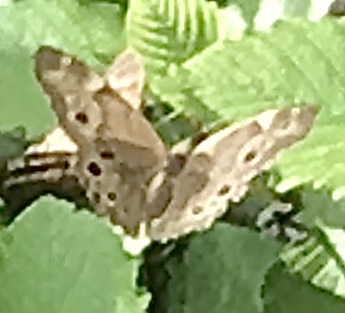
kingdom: Animalia
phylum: Arthropoda
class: Insecta
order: Lepidoptera
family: Nymphalidae
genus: Lethe
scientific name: Lethe anthedon
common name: Northern pearly-eye
